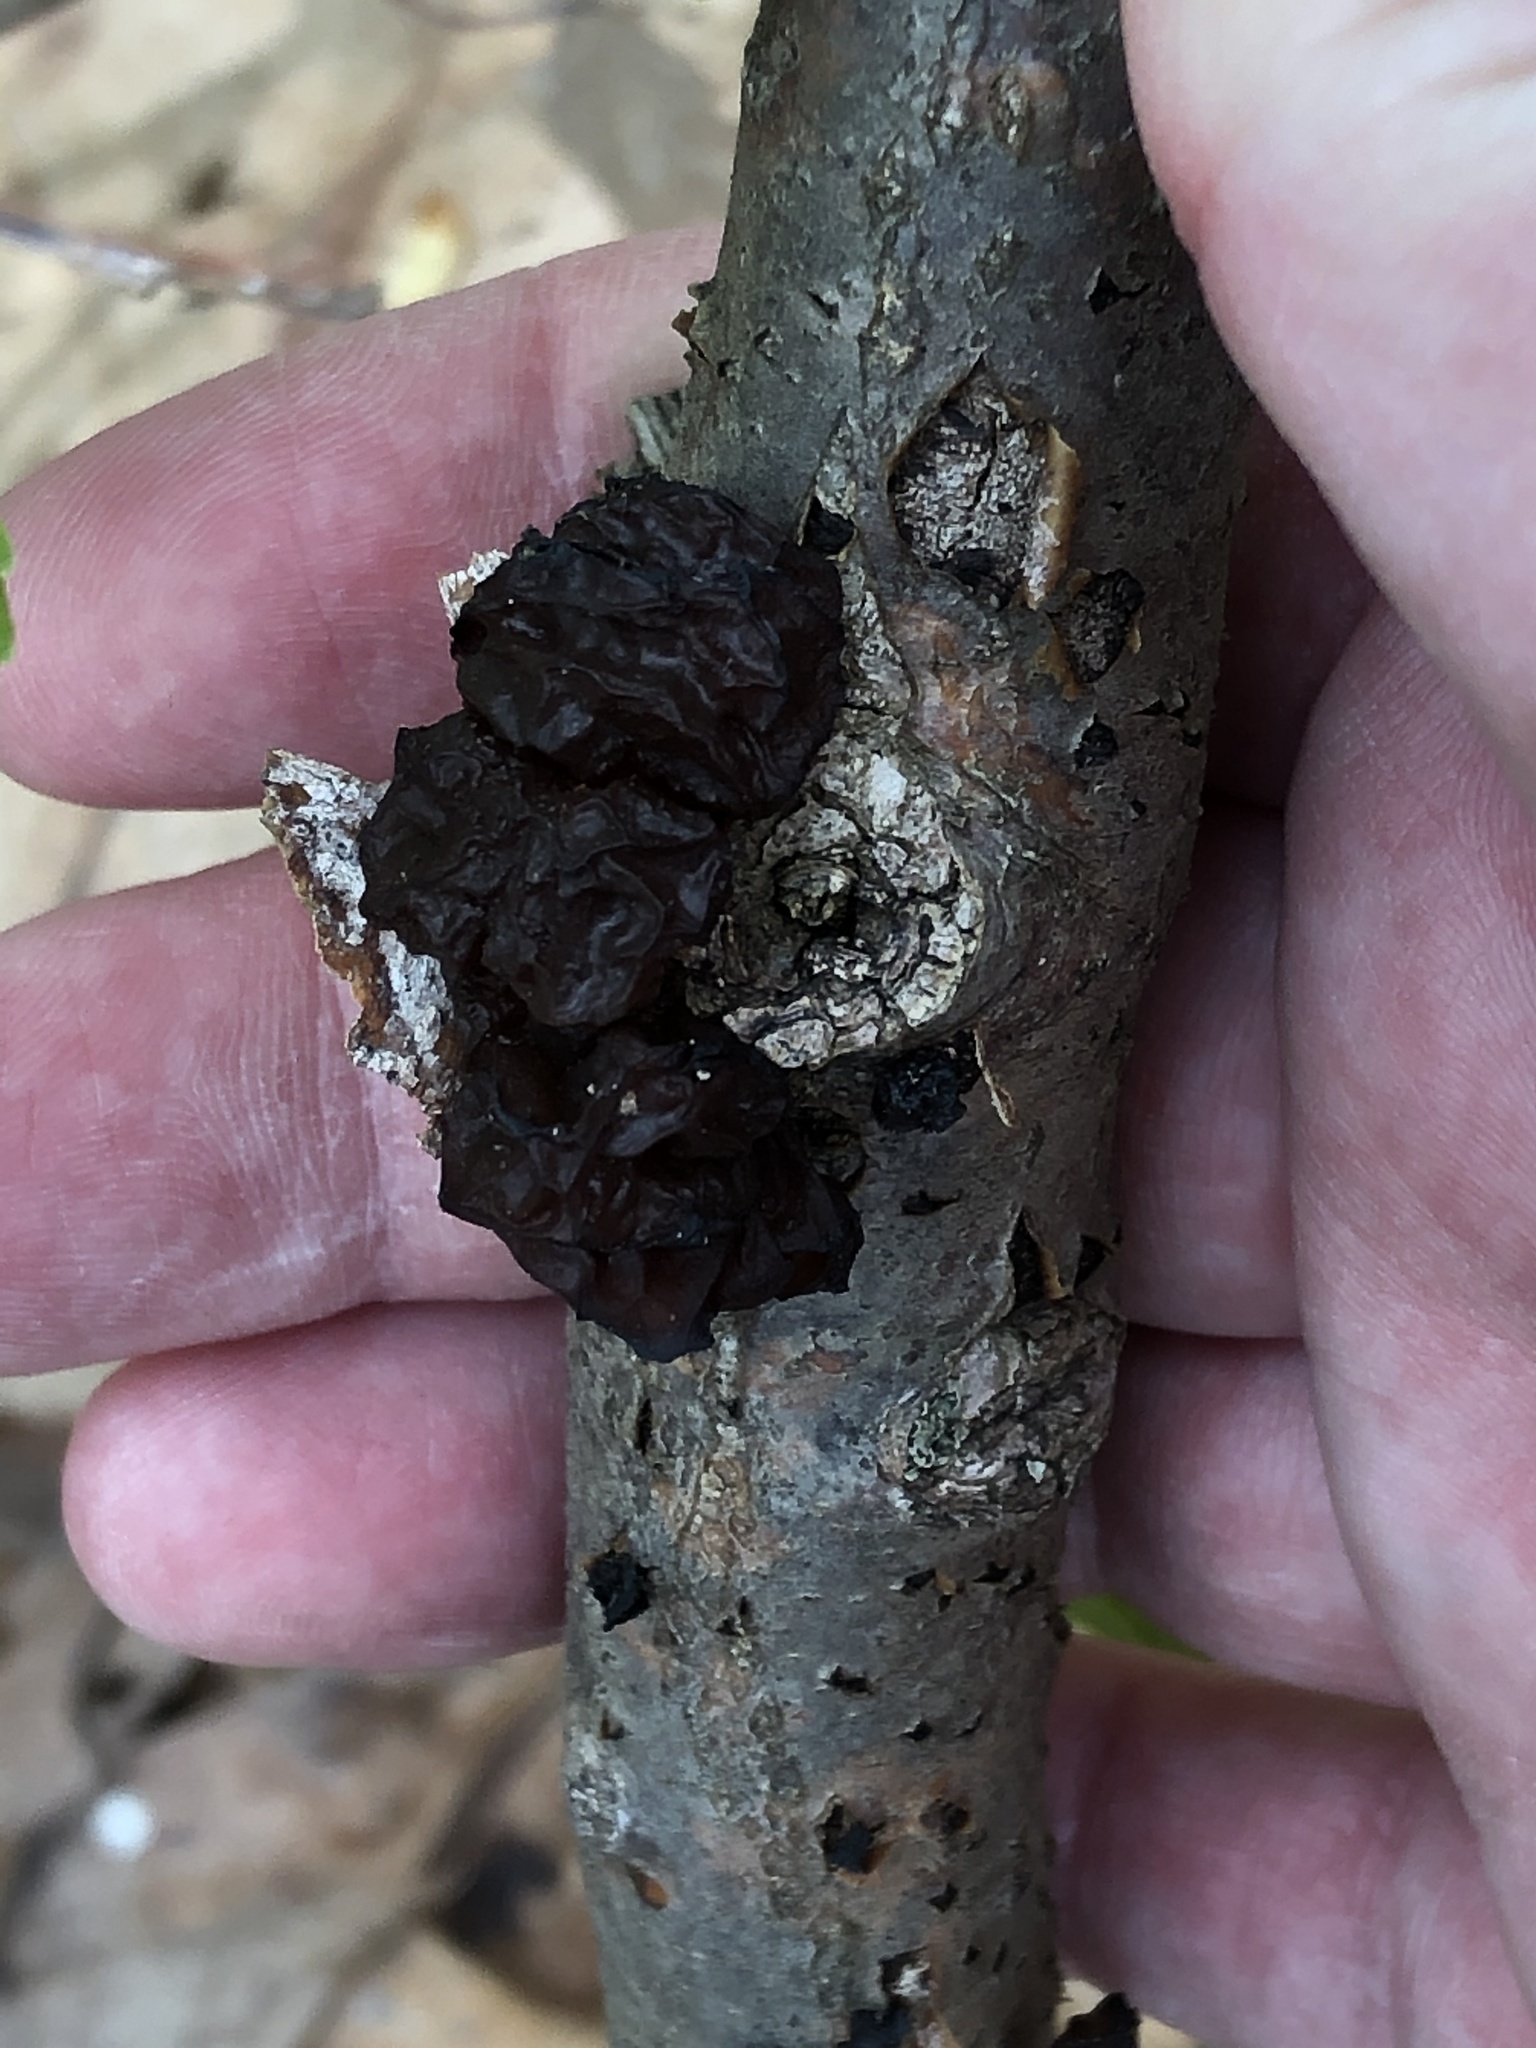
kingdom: Fungi
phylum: Basidiomycota
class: Agaricomycetes
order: Auriculariales
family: Auriculariaceae
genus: Exidia
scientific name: Exidia
